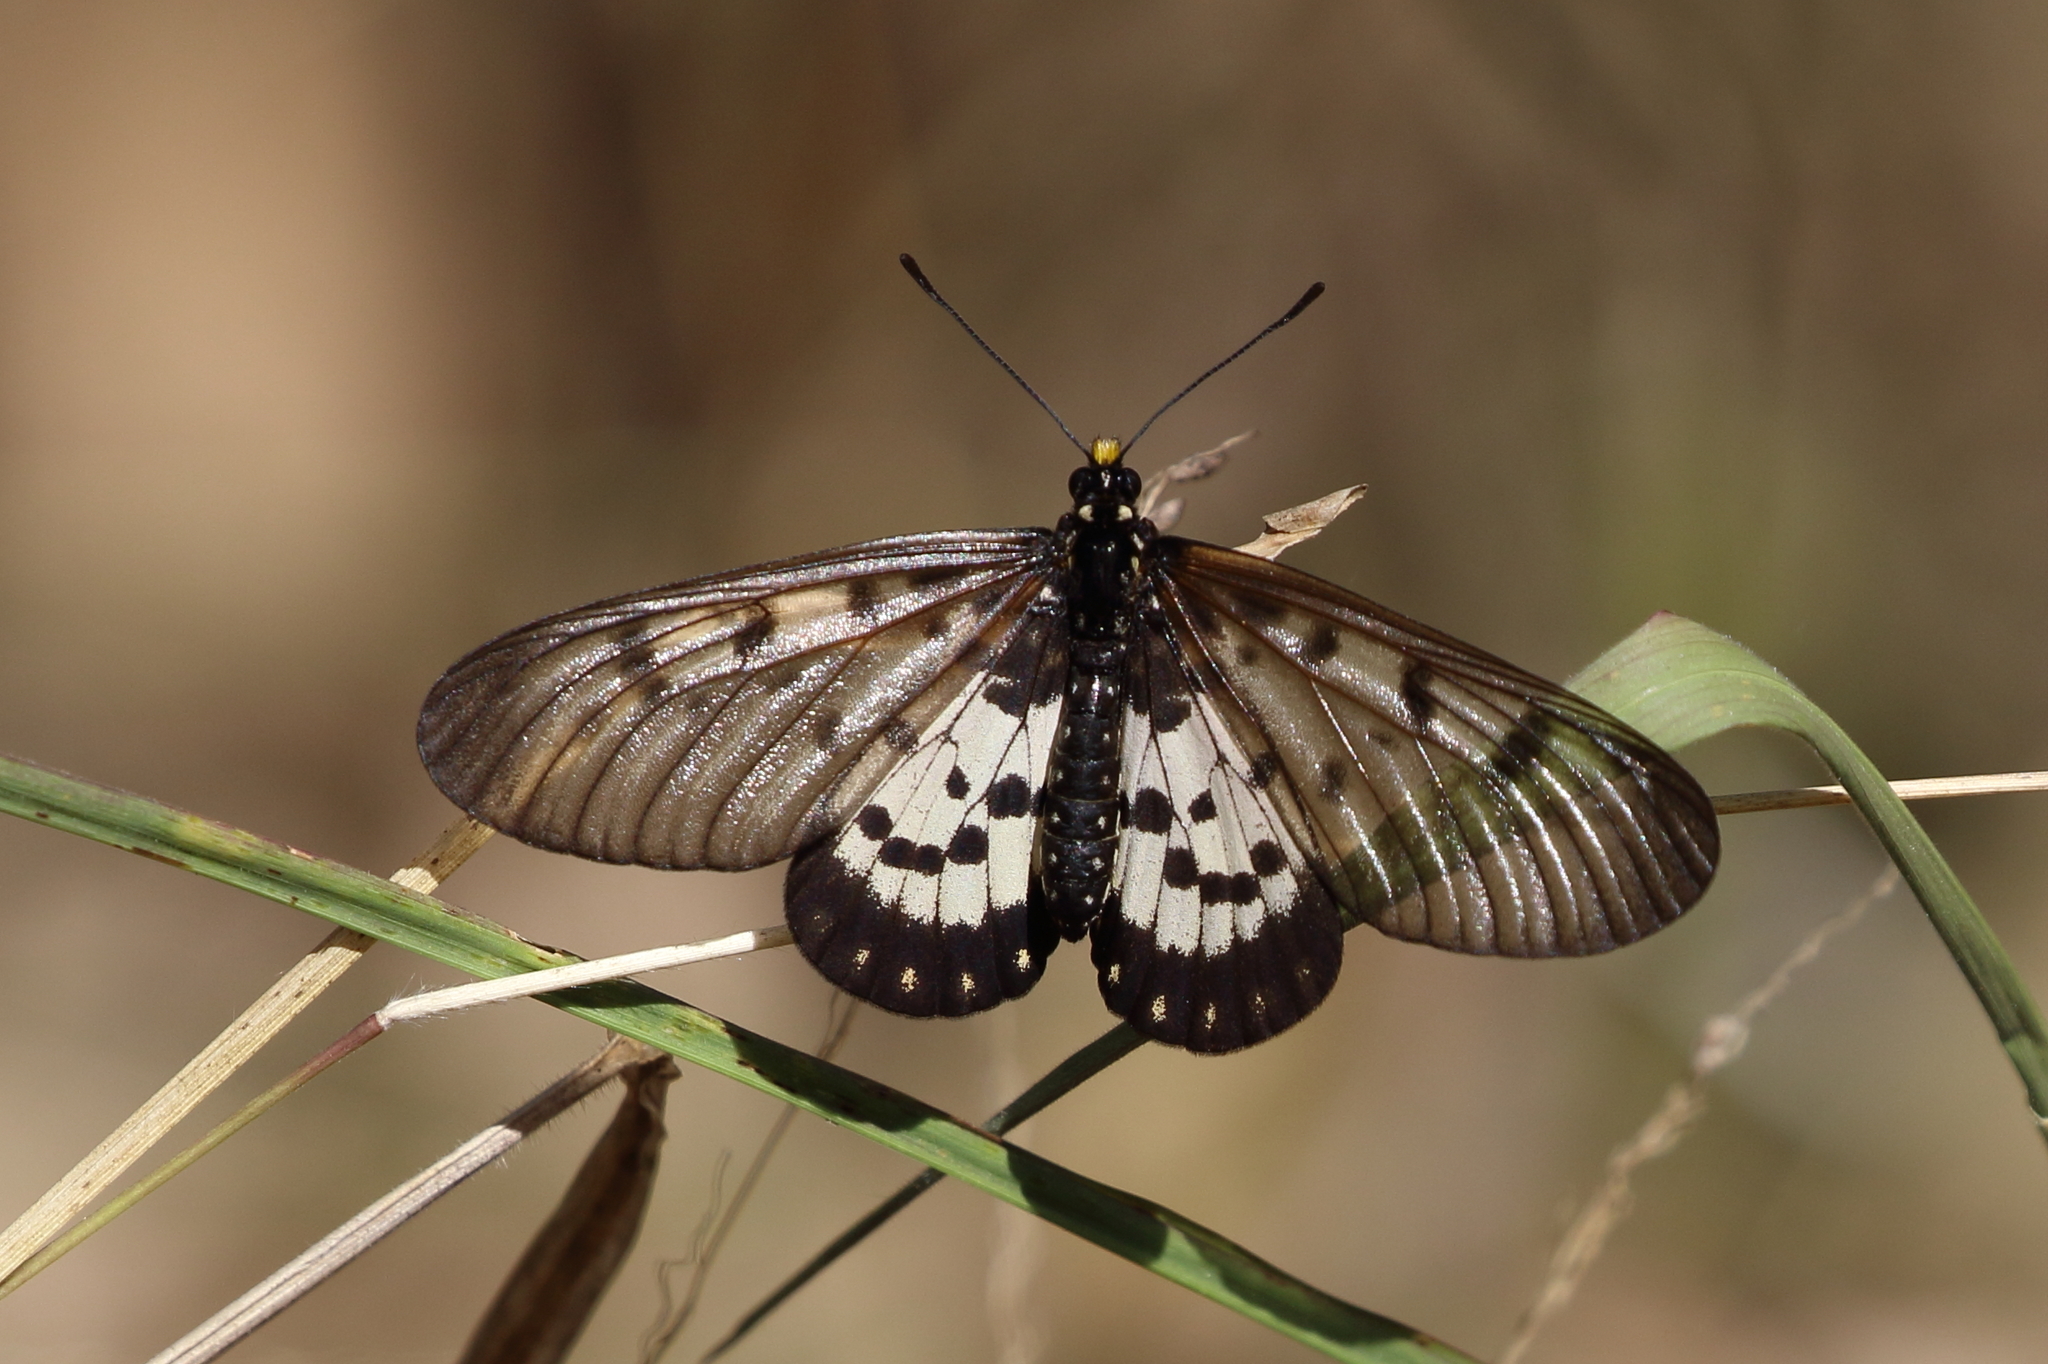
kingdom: Animalia
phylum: Arthropoda
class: Insecta
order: Lepidoptera
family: Nymphalidae
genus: Acraea
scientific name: Acraea andromacha
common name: Glasswing
